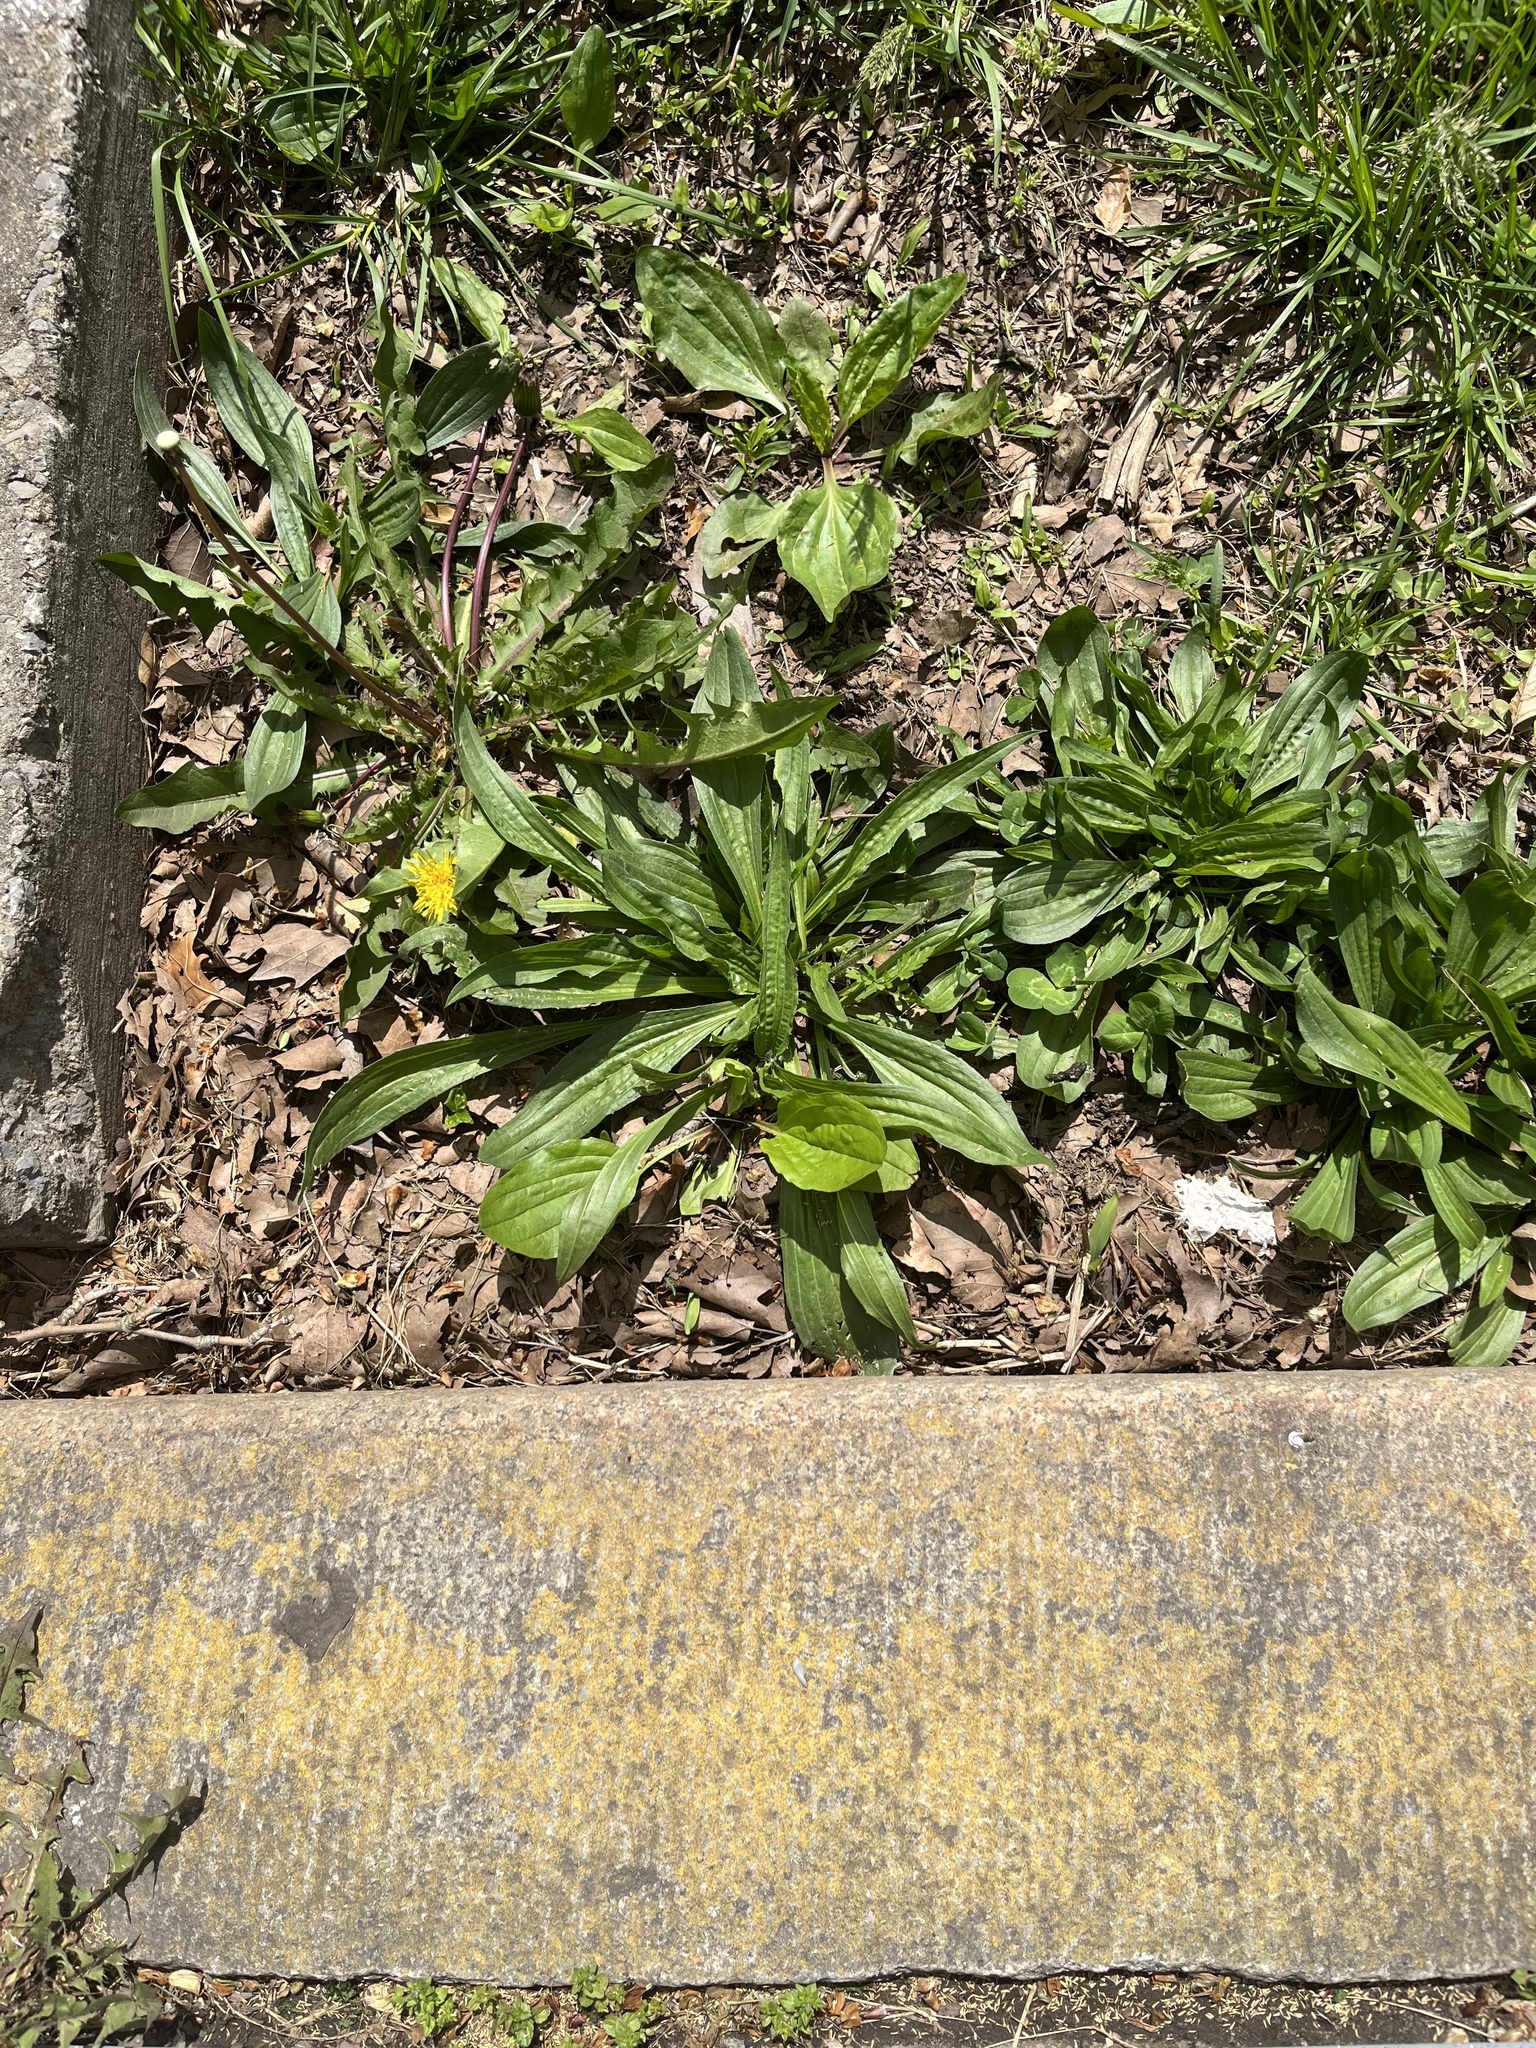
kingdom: Plantae
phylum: Tracheophyta
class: Magnoliopsida
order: Lamiales
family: Plantaginaceae
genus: Plantago
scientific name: Plantago lanceolata
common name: Ribwort plantain
